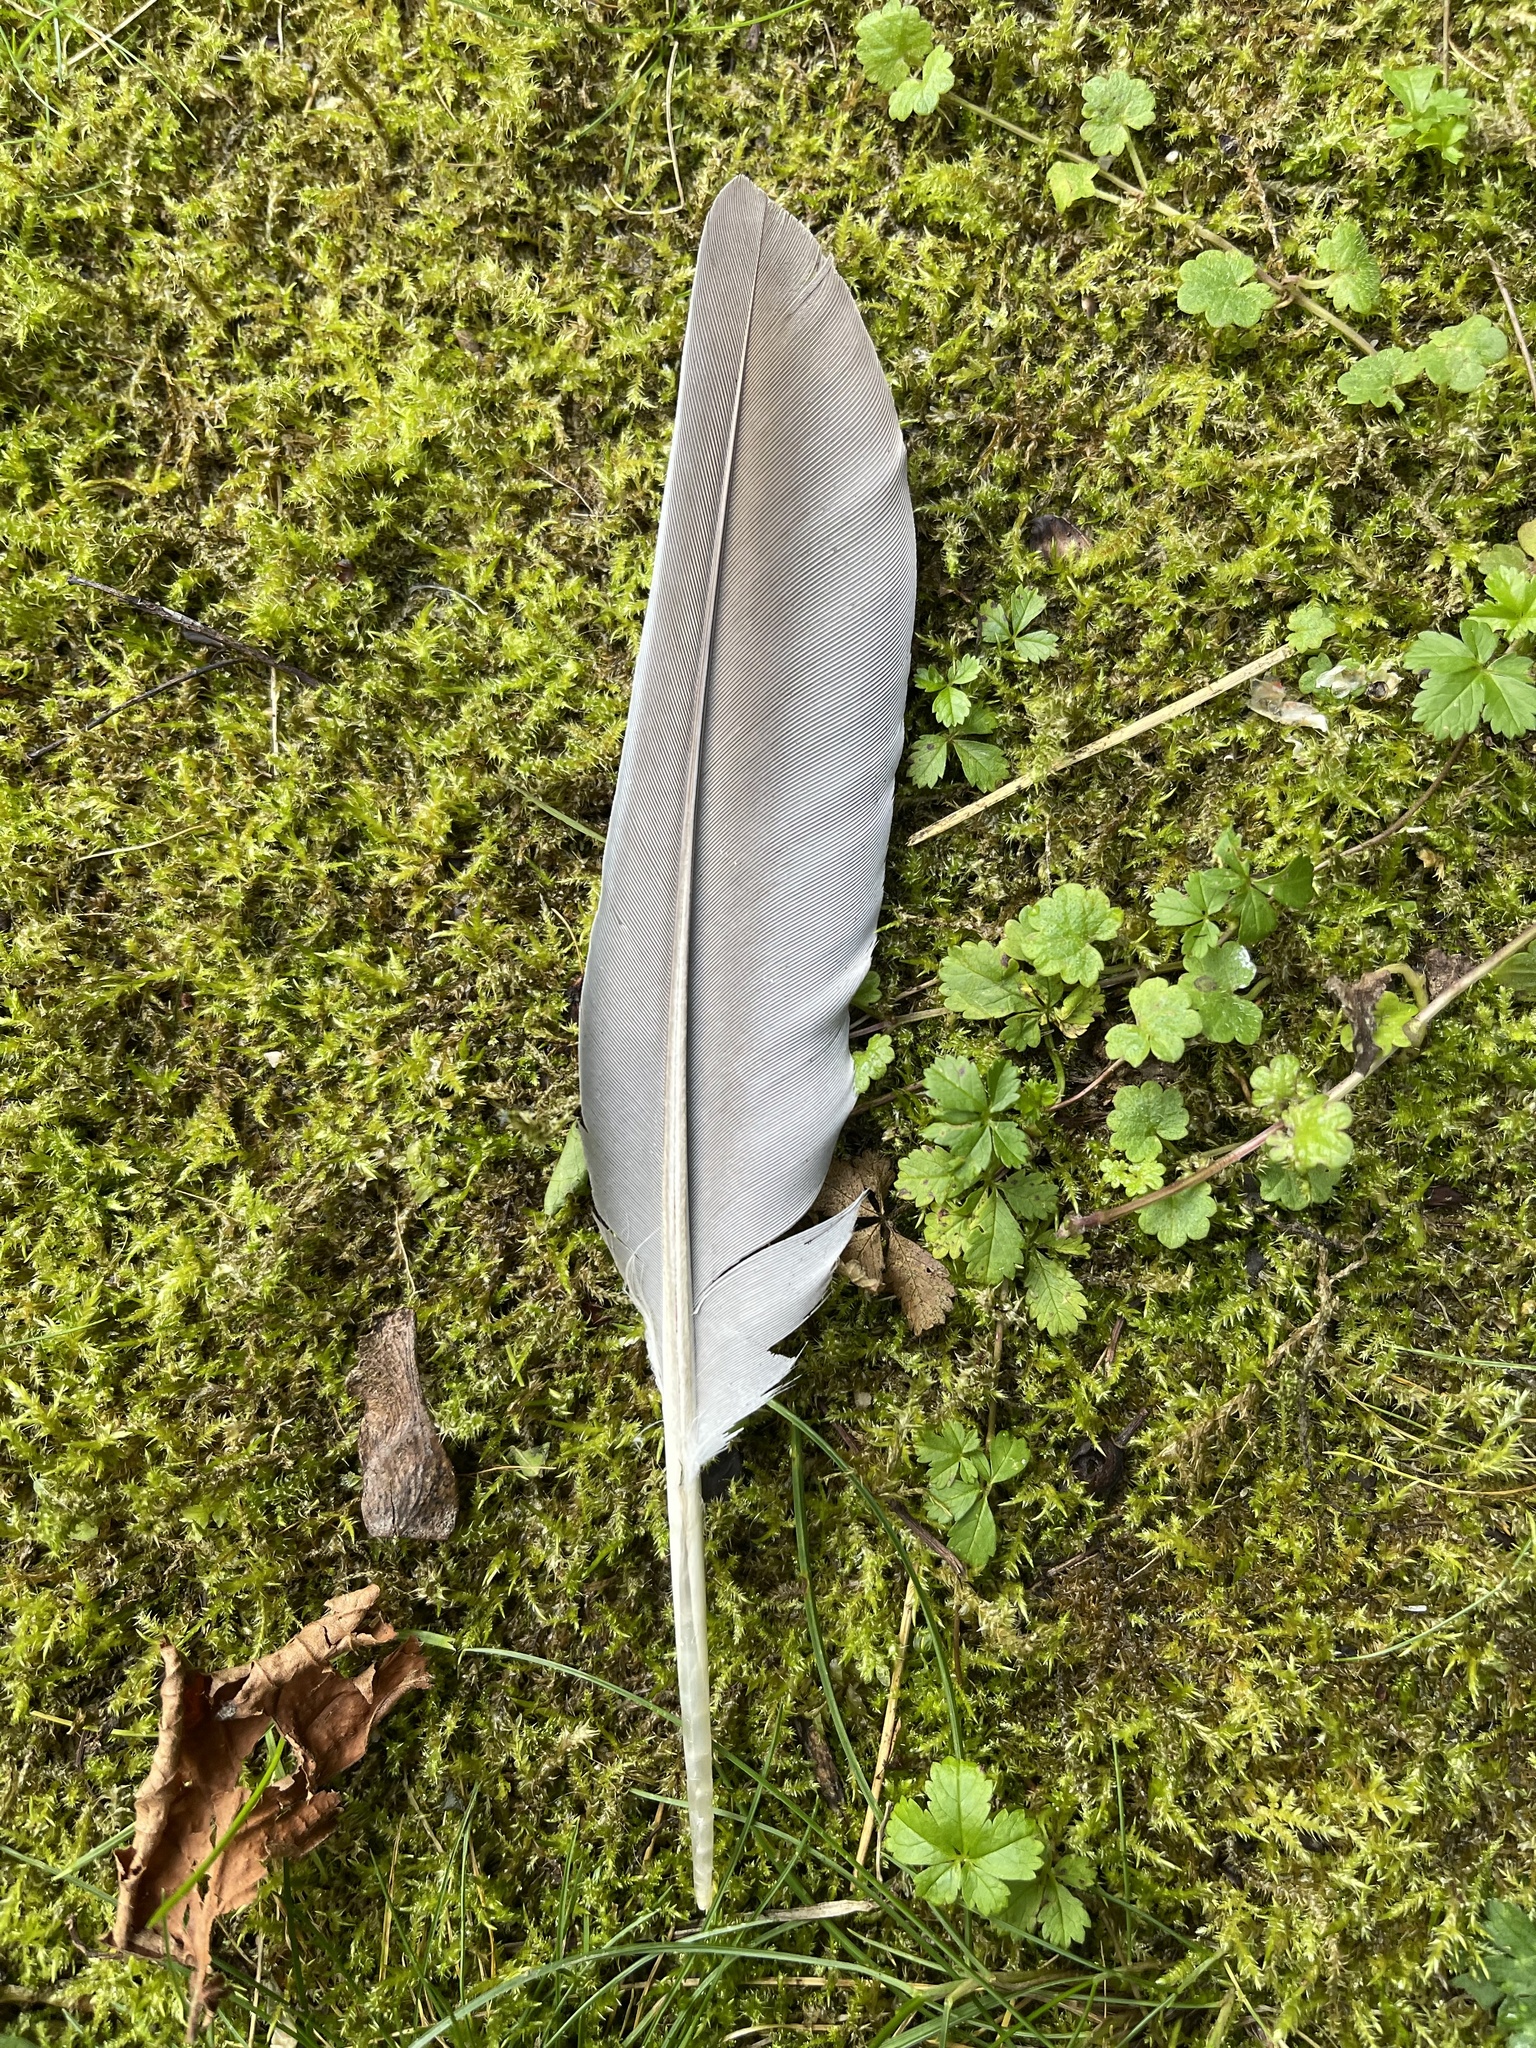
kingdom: Animalia
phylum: Chordata
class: Aves
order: Columbiformes
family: Columbidae
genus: Columba
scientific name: Columba palumbus
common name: Common wood pigeon
